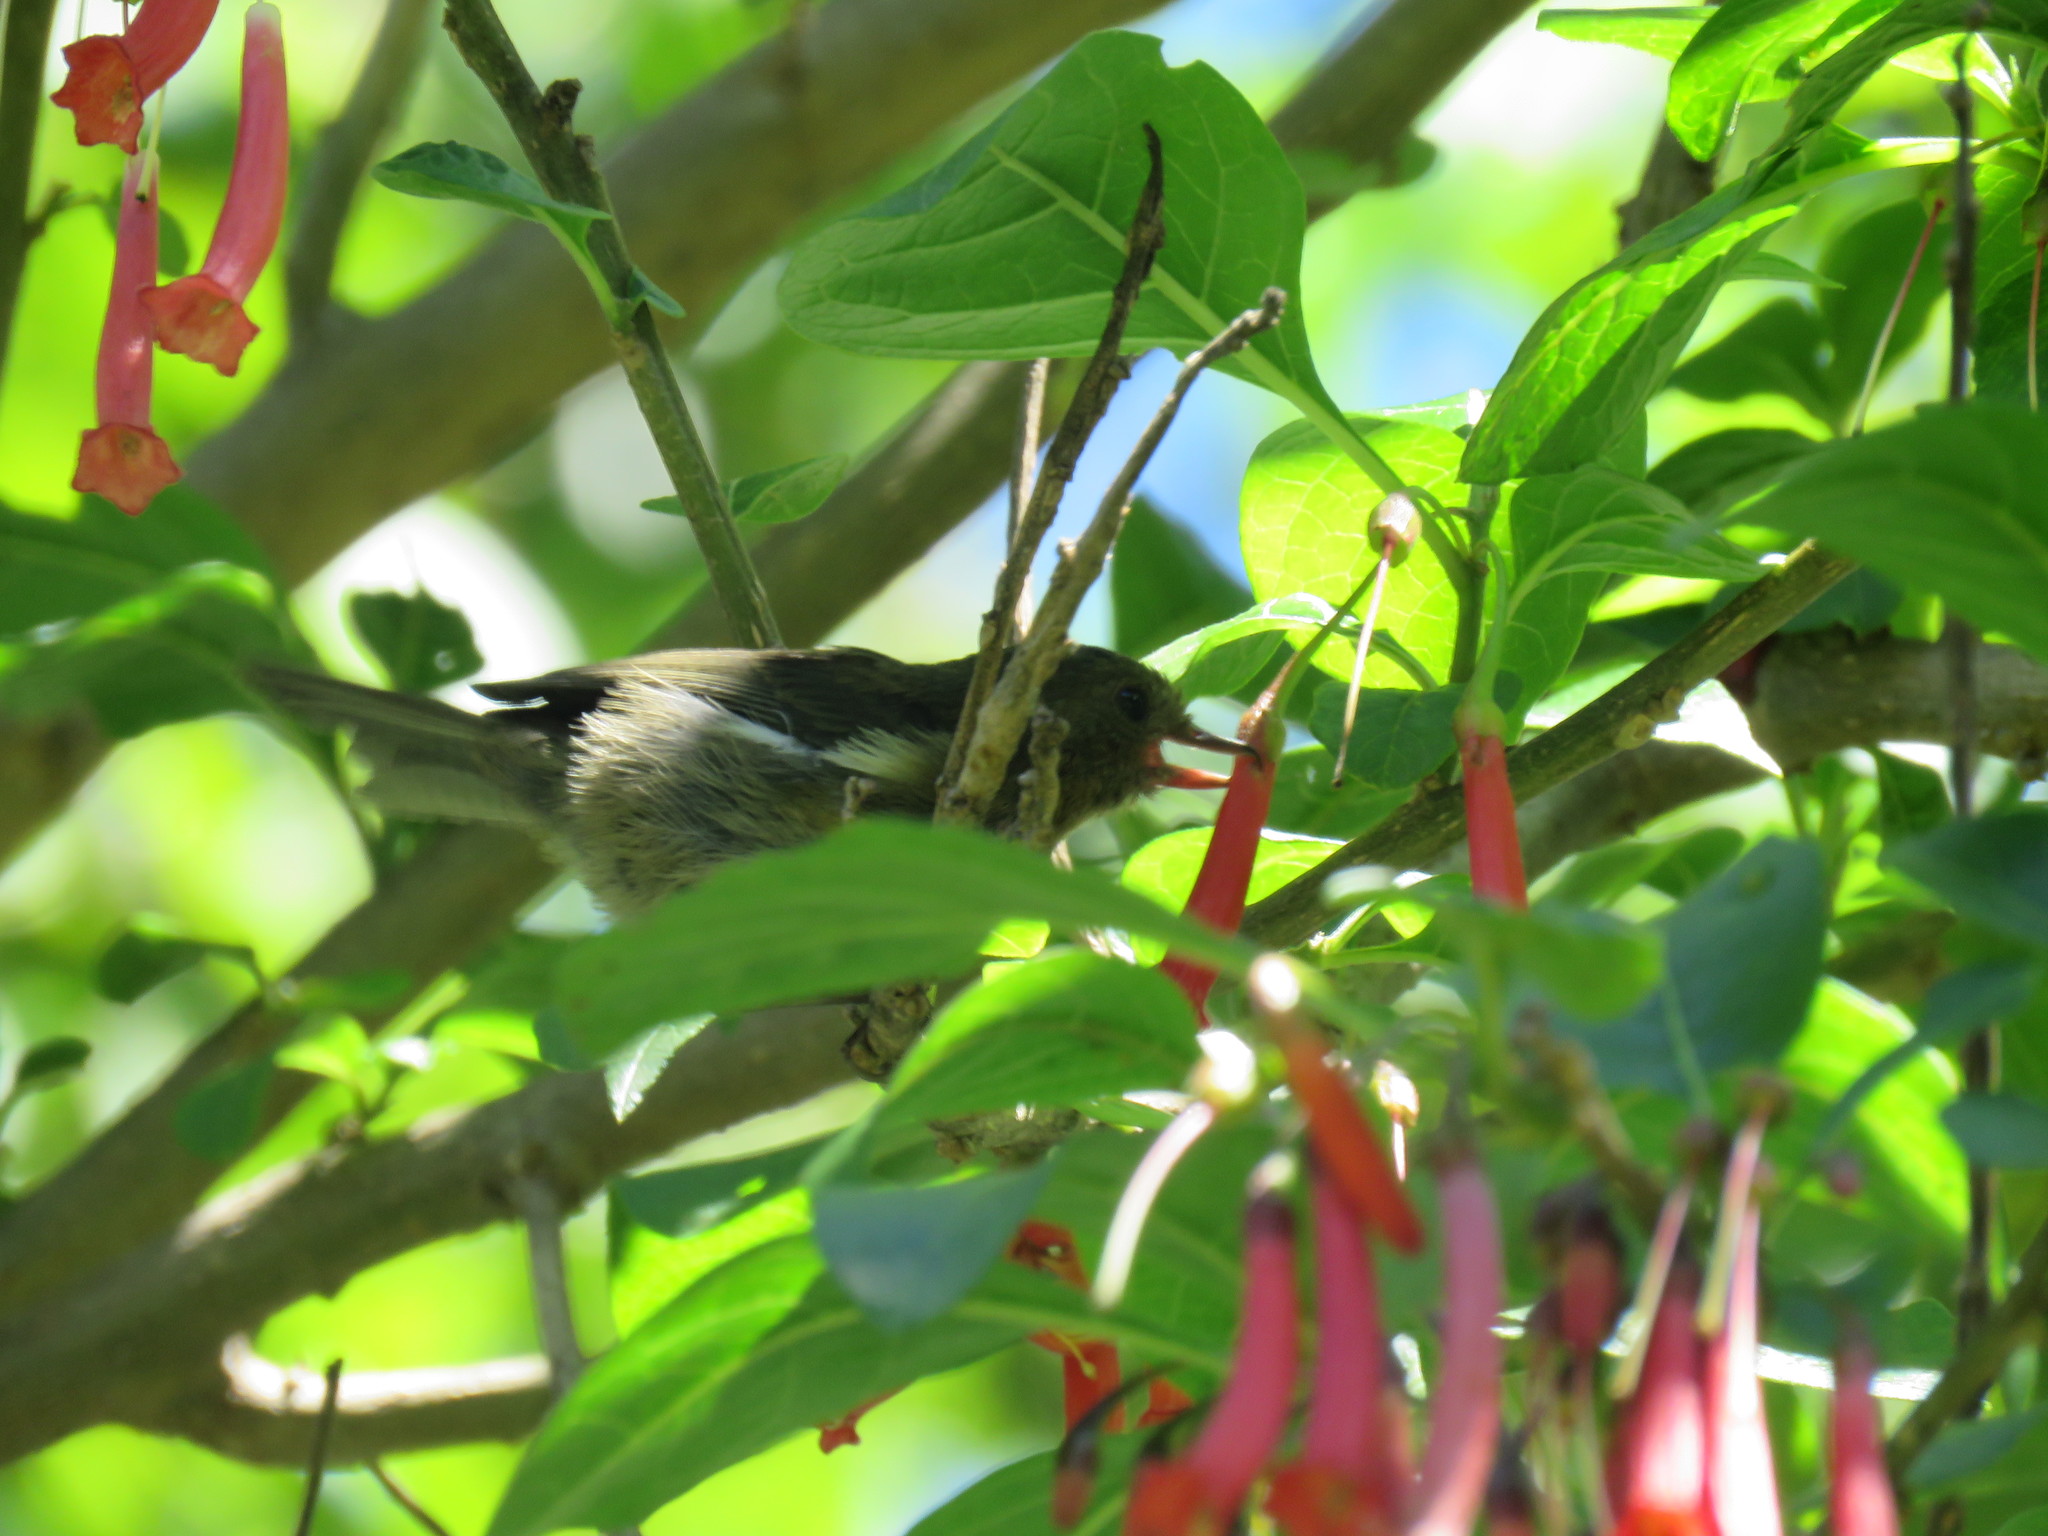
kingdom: Animalia
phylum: Chordata
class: Aves
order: Passeriformes
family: Thraupidae
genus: Diglossa
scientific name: Diglossa albilatera
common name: White-sided flowerpiercer
